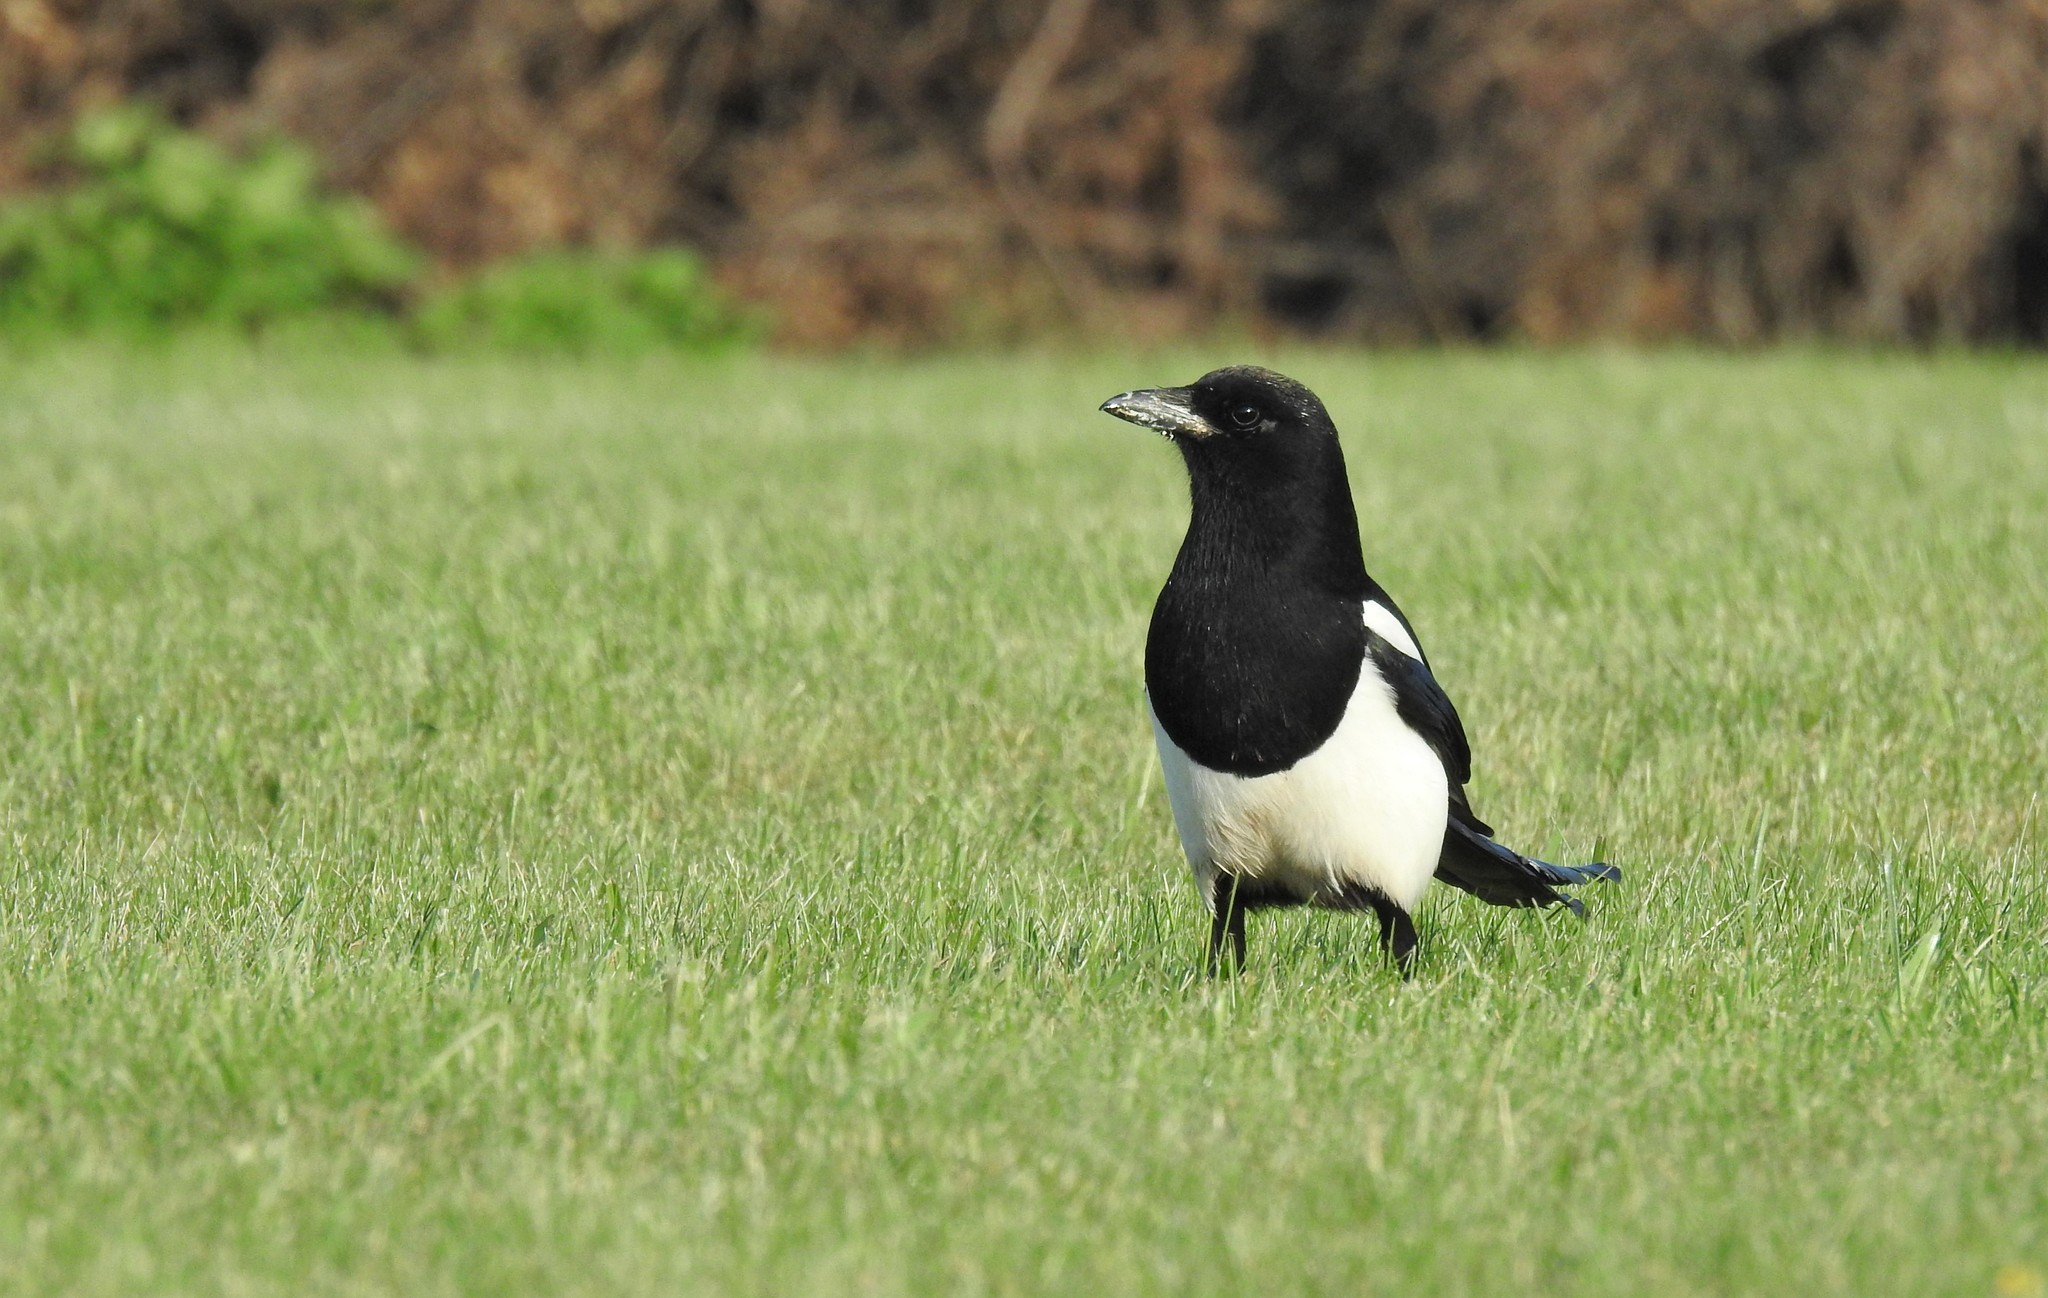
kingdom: Animalia
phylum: Chordata
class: Aves
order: Passeriformes
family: Corvidae
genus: Pica
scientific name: Pica hudsonia
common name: Black-billed magpie
